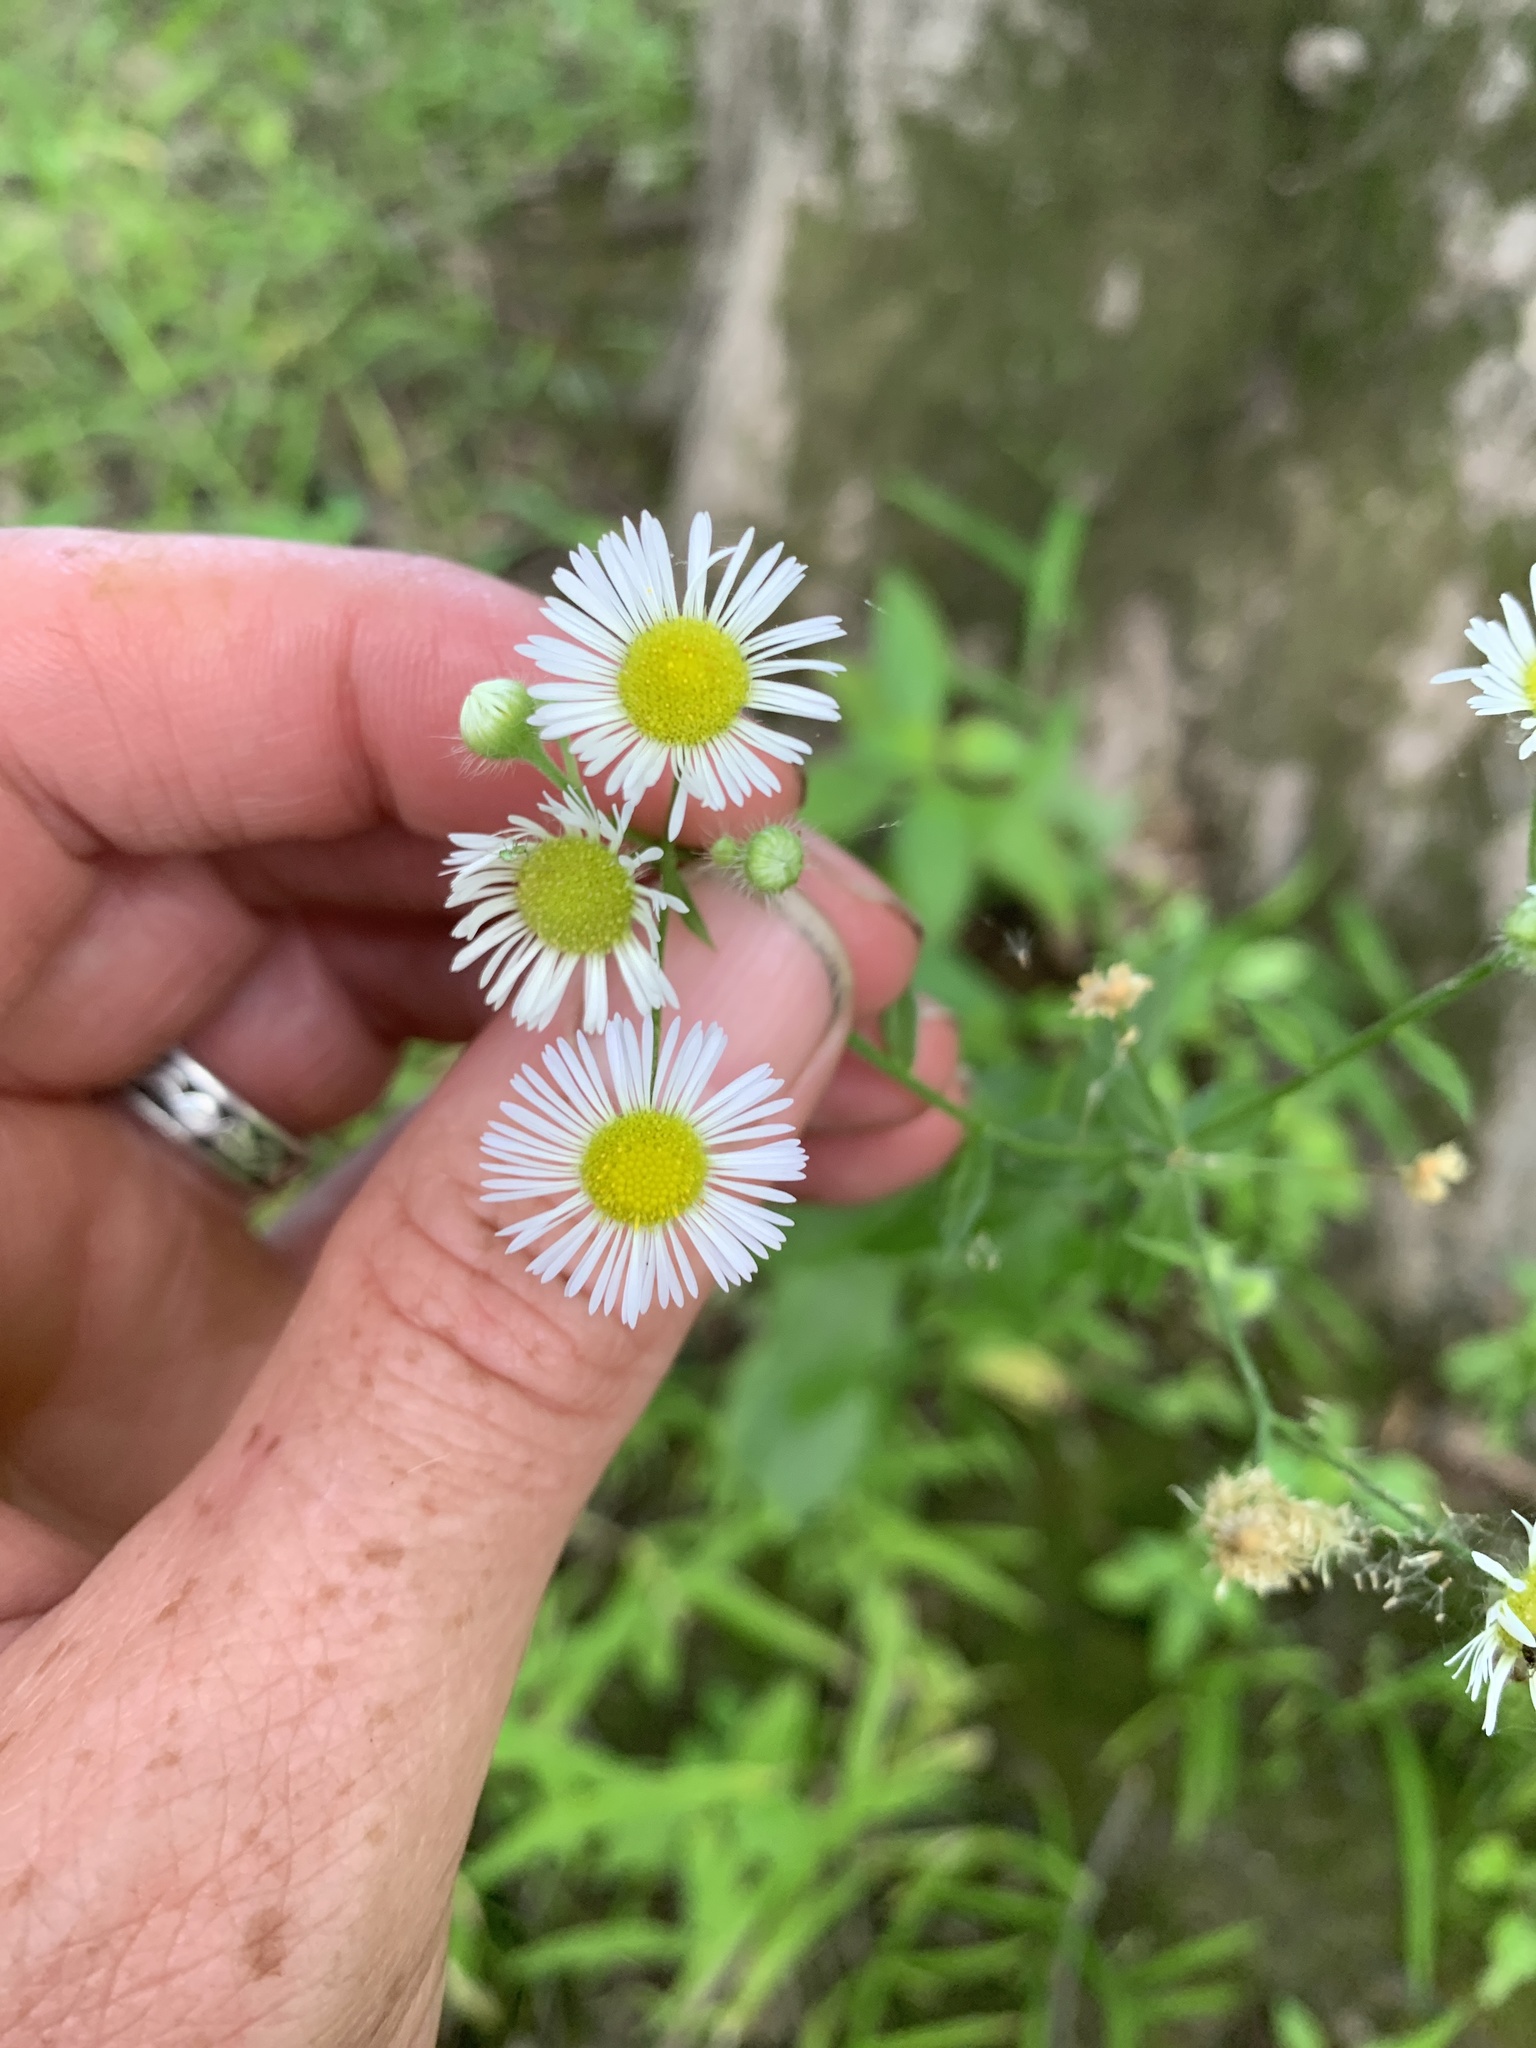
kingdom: Plantae
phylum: Tracheophyta
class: Magnoliopsida
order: Asterales
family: Asteraceae
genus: Erigeron
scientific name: Erigeron annuus
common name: Tall fleabane
